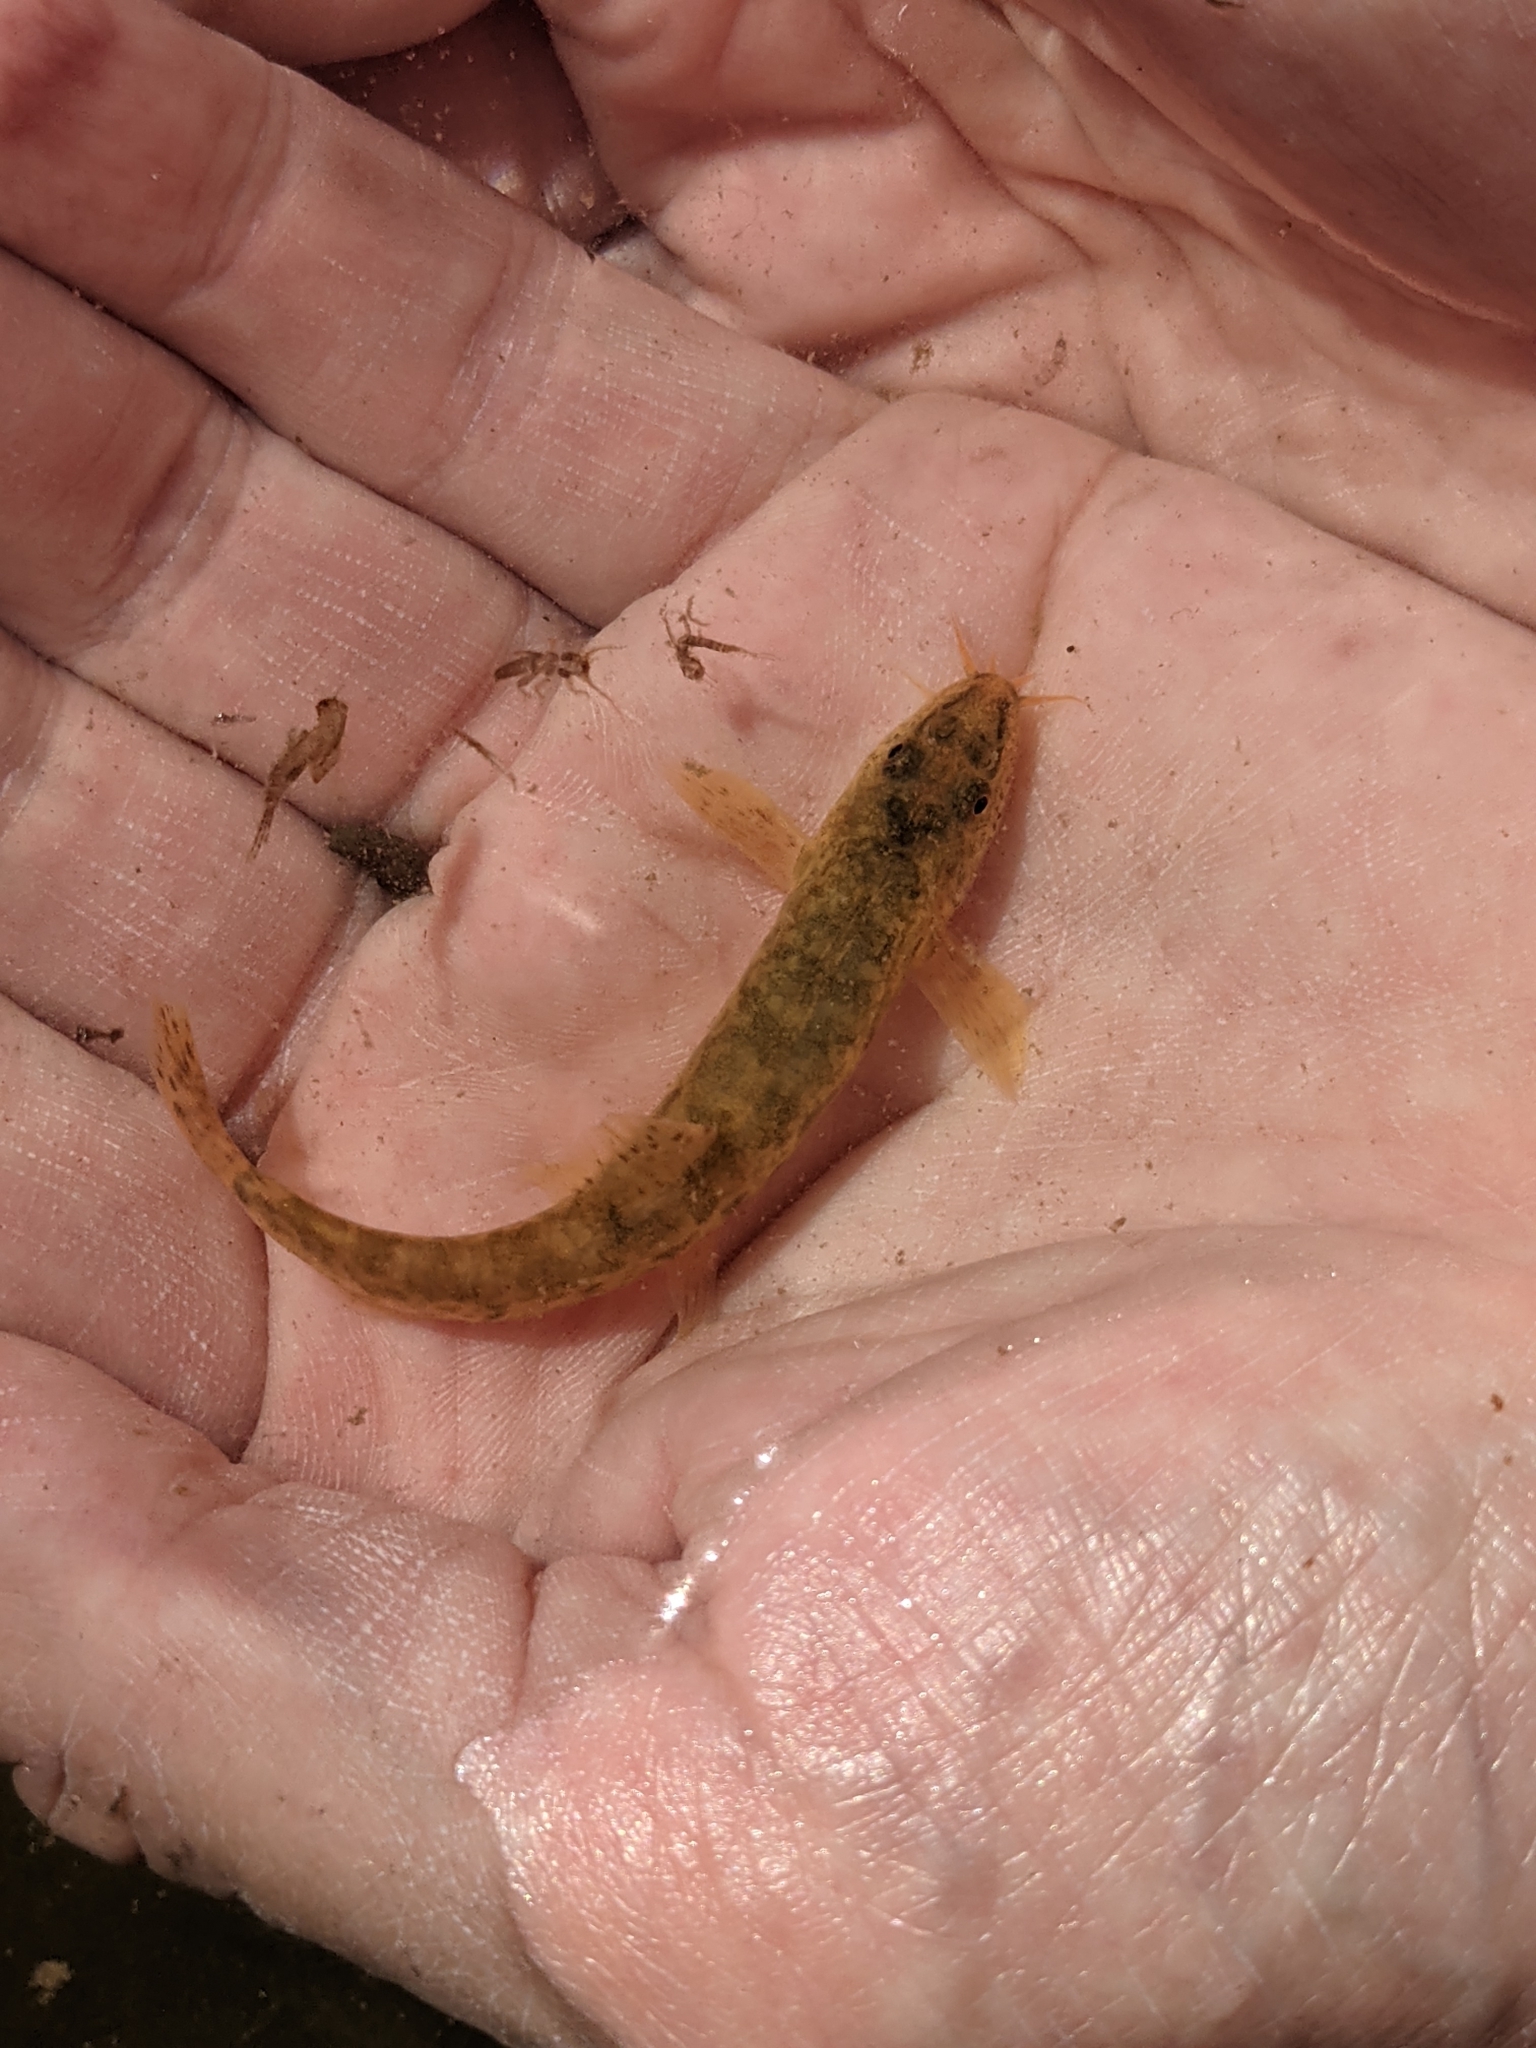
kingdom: Animalia
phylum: Chordata
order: Cypriniformes
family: Nemacheilidae
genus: Barbatula
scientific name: Barbatula barbatula
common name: Stone loach
